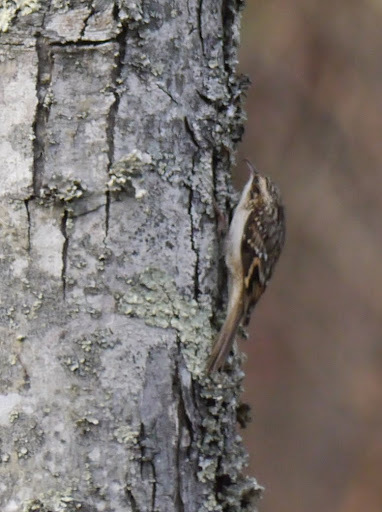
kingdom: Animalia
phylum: Chordata
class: Aves
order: Passeriformes
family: Certhiidae
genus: Certhia
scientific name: Certhia americana
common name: Brown creeper
